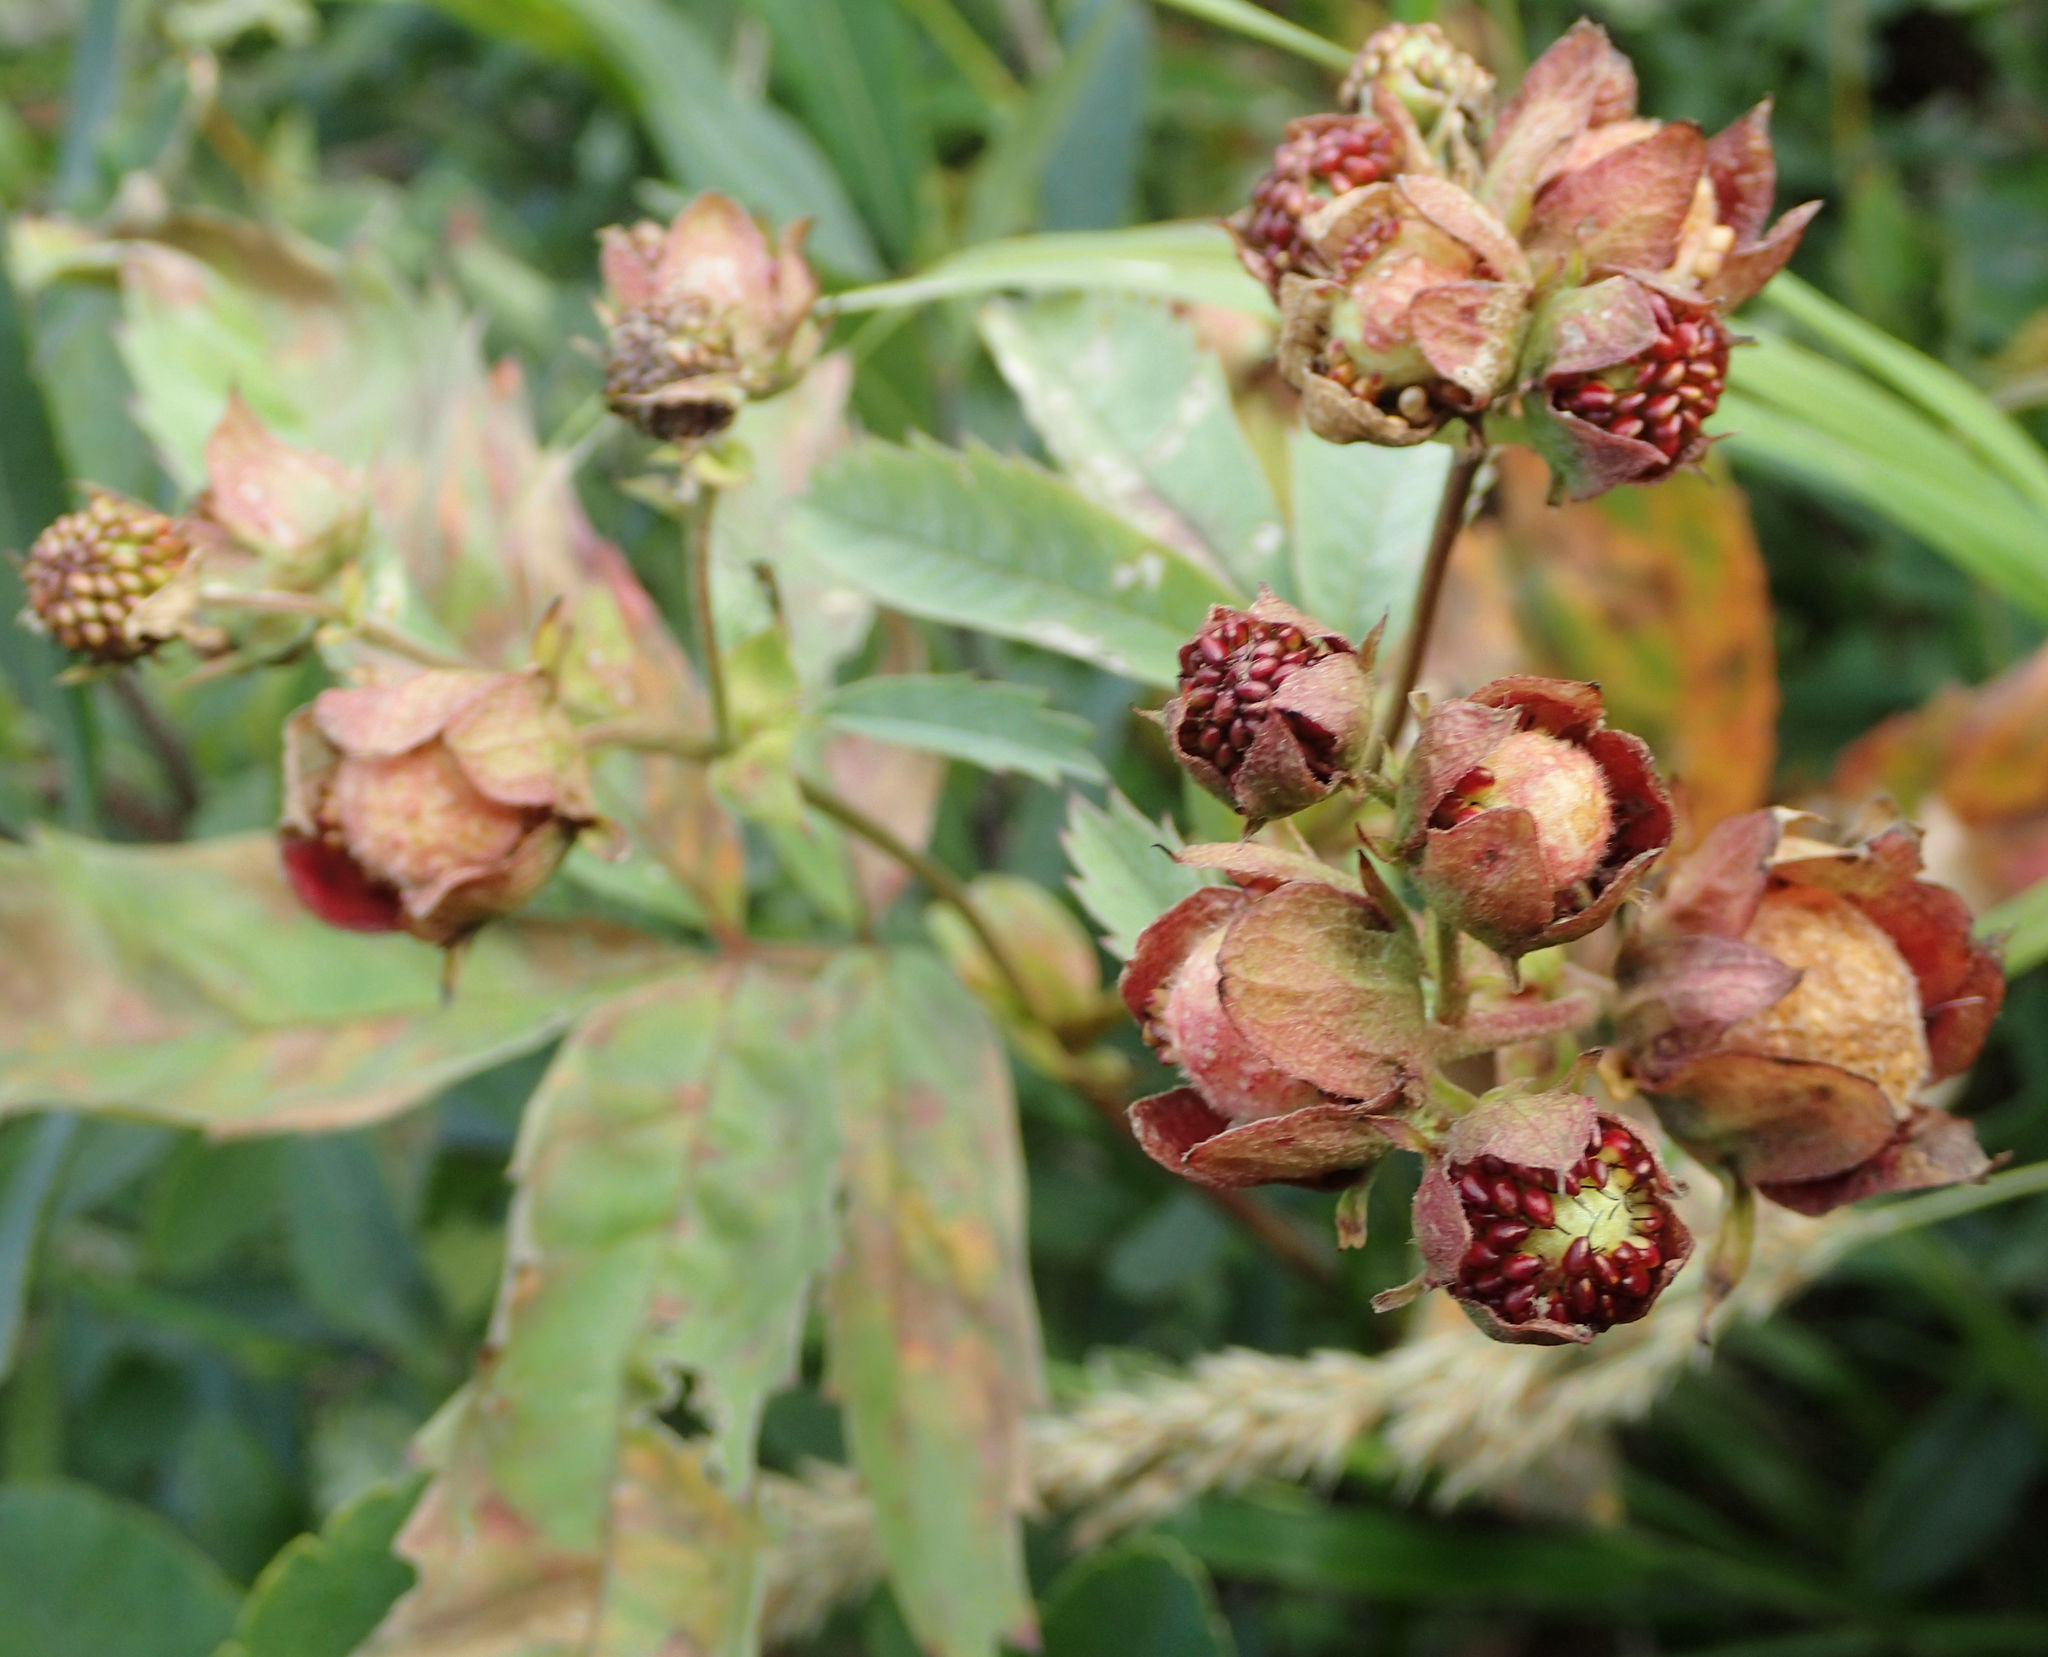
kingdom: Plantae
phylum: Tracheophyta
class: Magnoliopsida
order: Rosales
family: Rosaceae
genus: Comarum
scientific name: Comarum palustre
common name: Marsh cinquefoil
